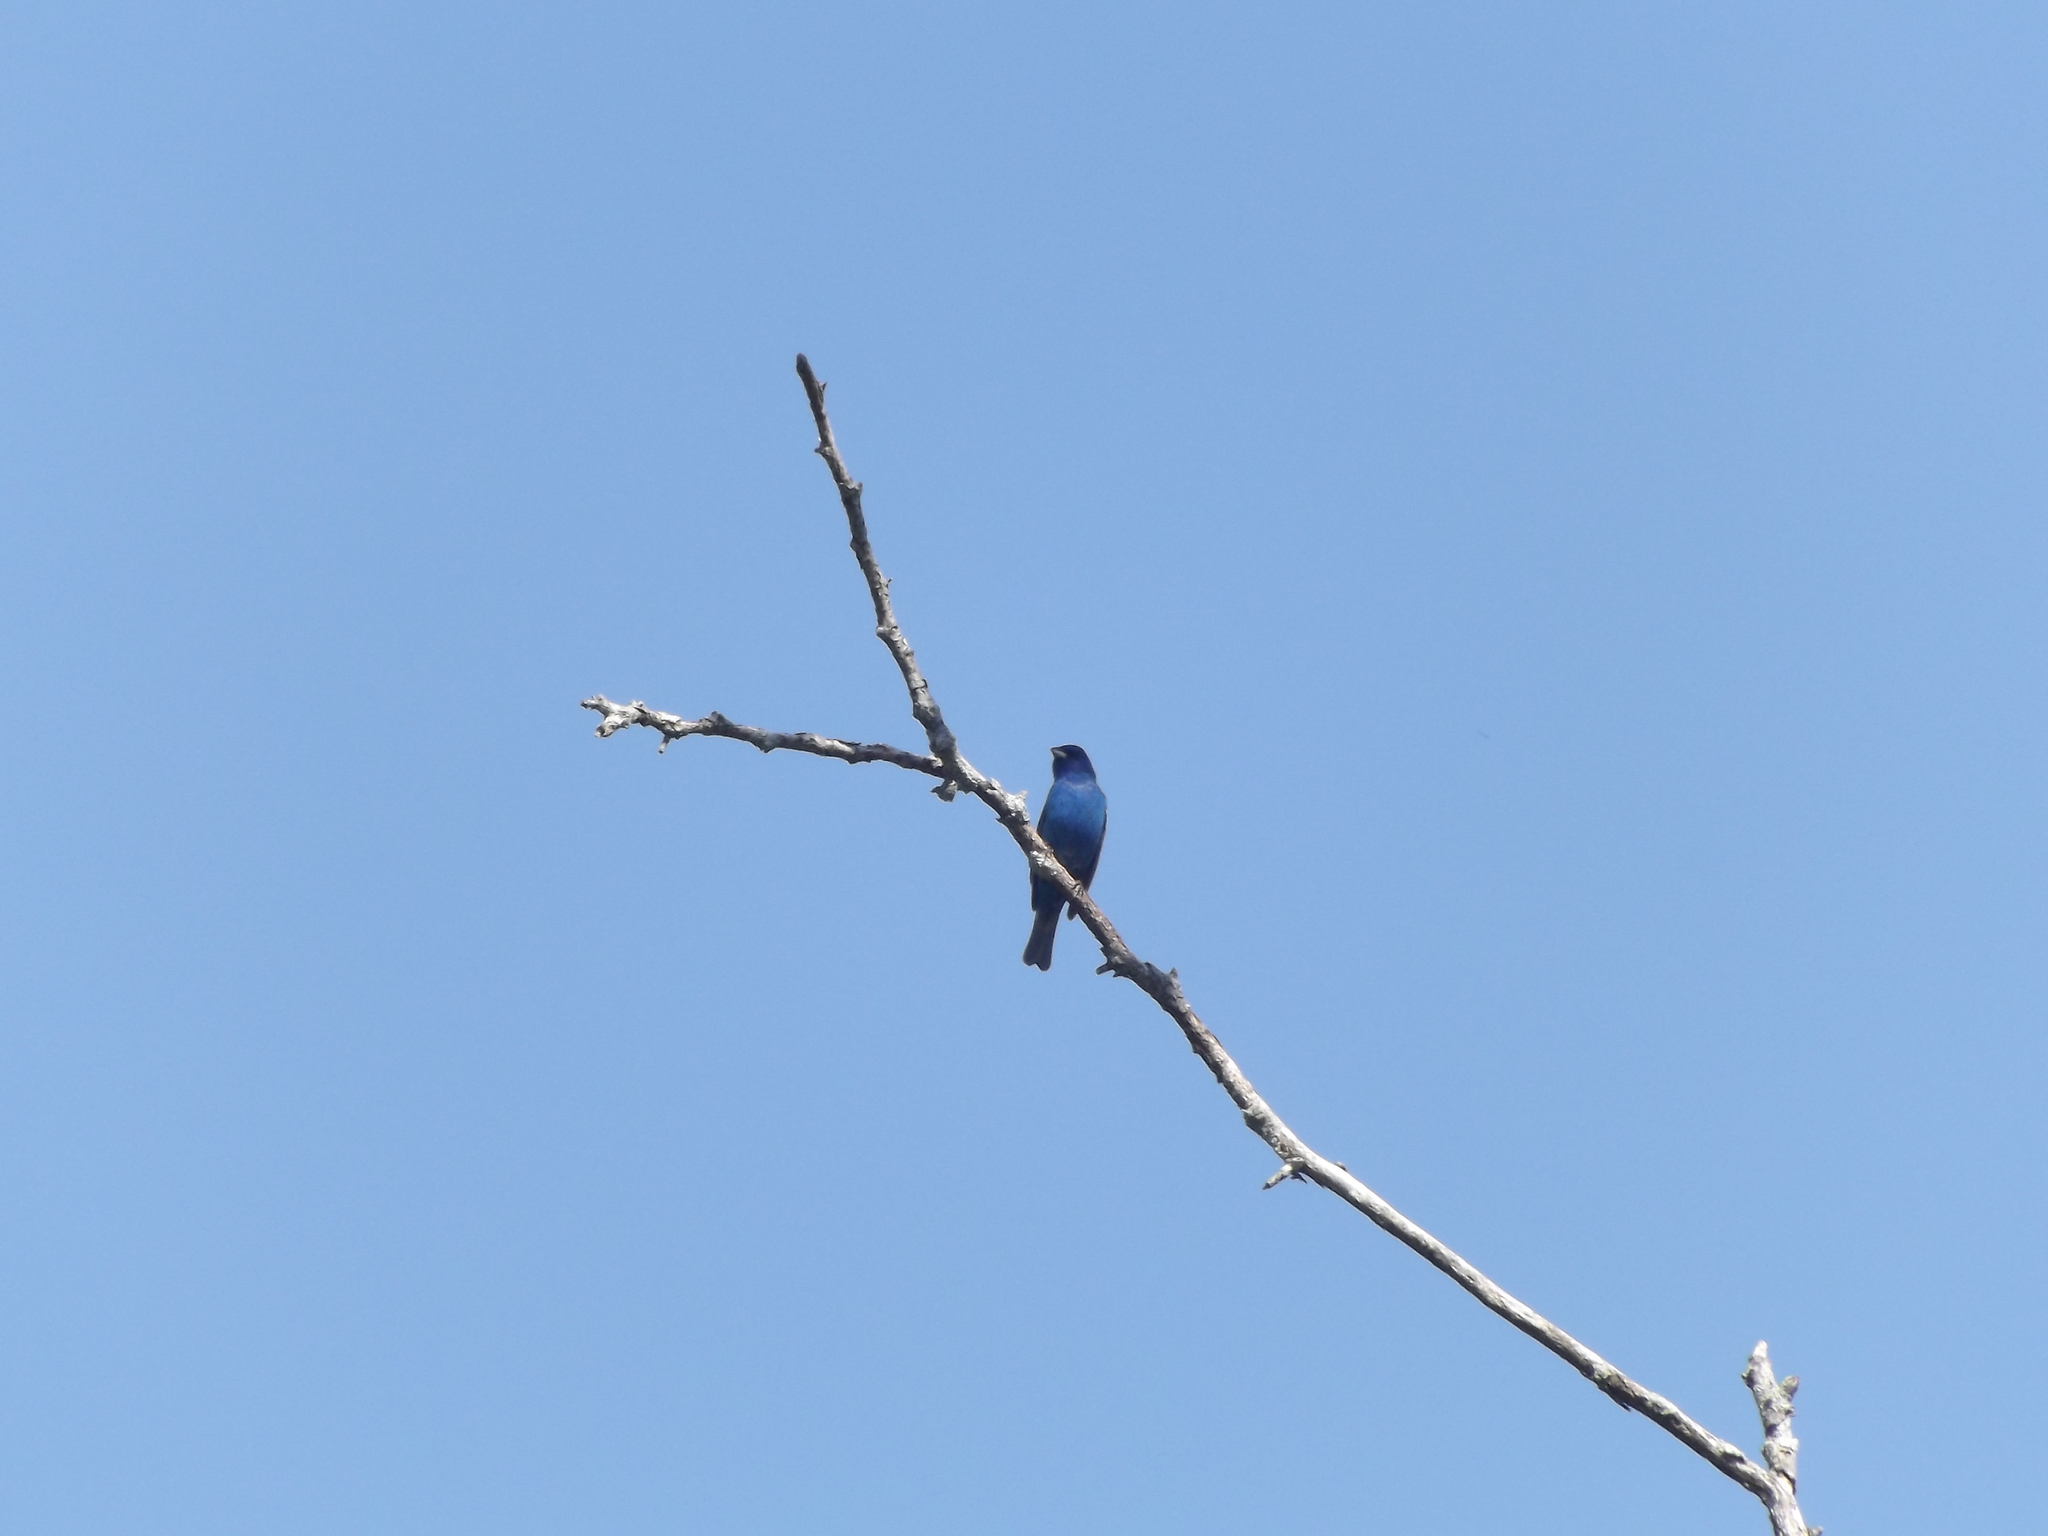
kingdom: Animalia
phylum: Chordata
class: Aves
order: Passeriformes
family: Cardinalidae
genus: Passerina
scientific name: Passerina cyanea
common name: Indigo bunting
